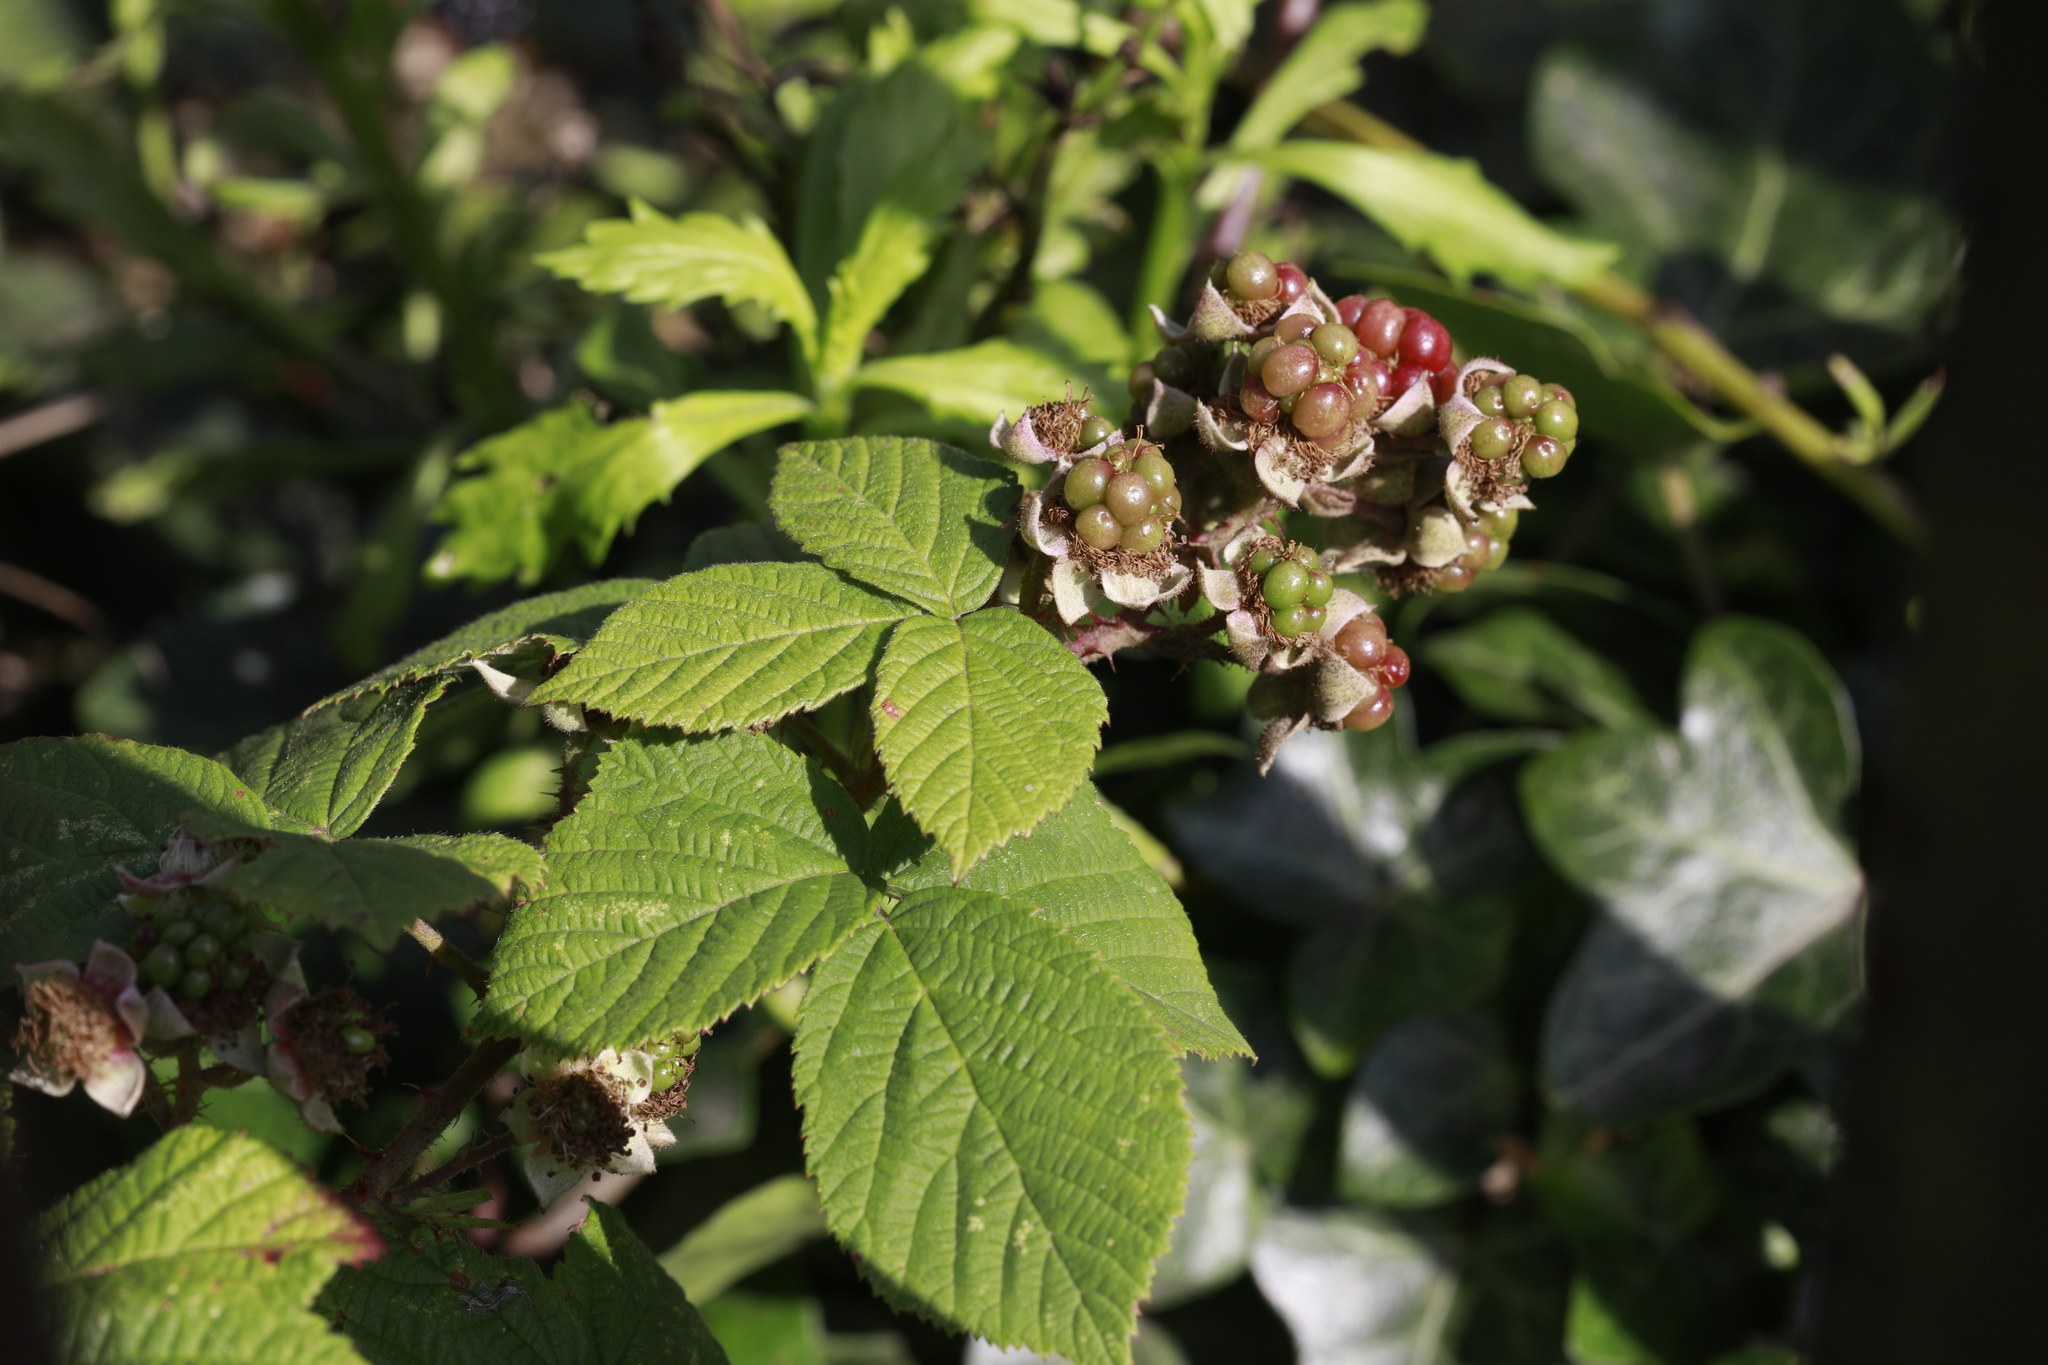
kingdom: Plantae
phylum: Tracheophyta
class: Magnoliopsida
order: Rosales
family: Rosaceae
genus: Rubus
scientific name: Rubus horrefactus
